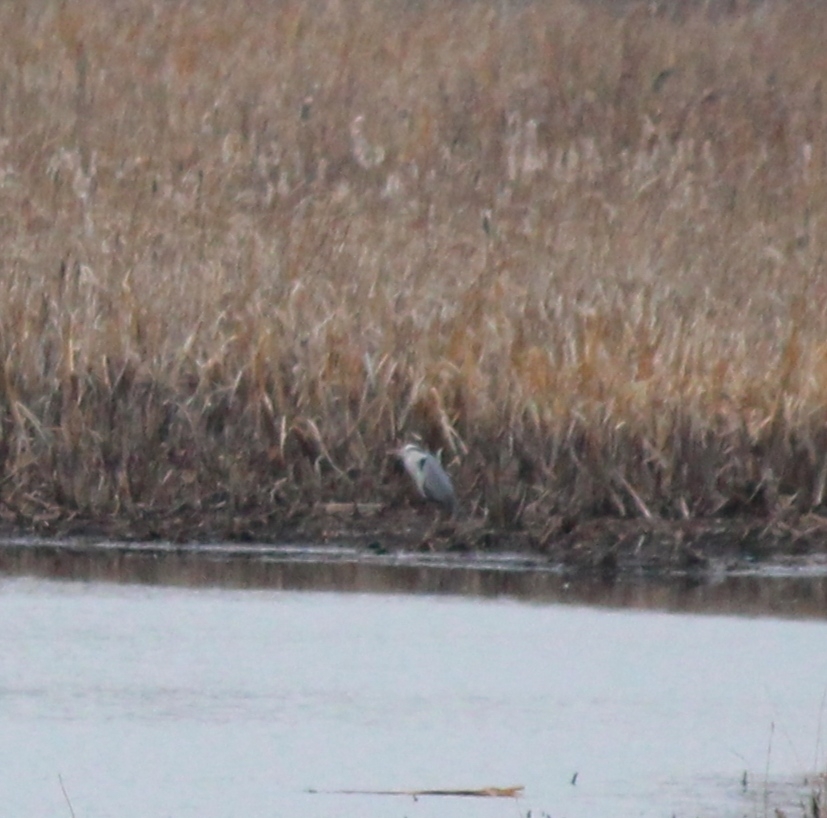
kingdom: Animalia
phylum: Chordata
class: Aves
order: Pelecaniformes
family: Ardeidae
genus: Ardea
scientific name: Ardea cinerea
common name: Grey heron
